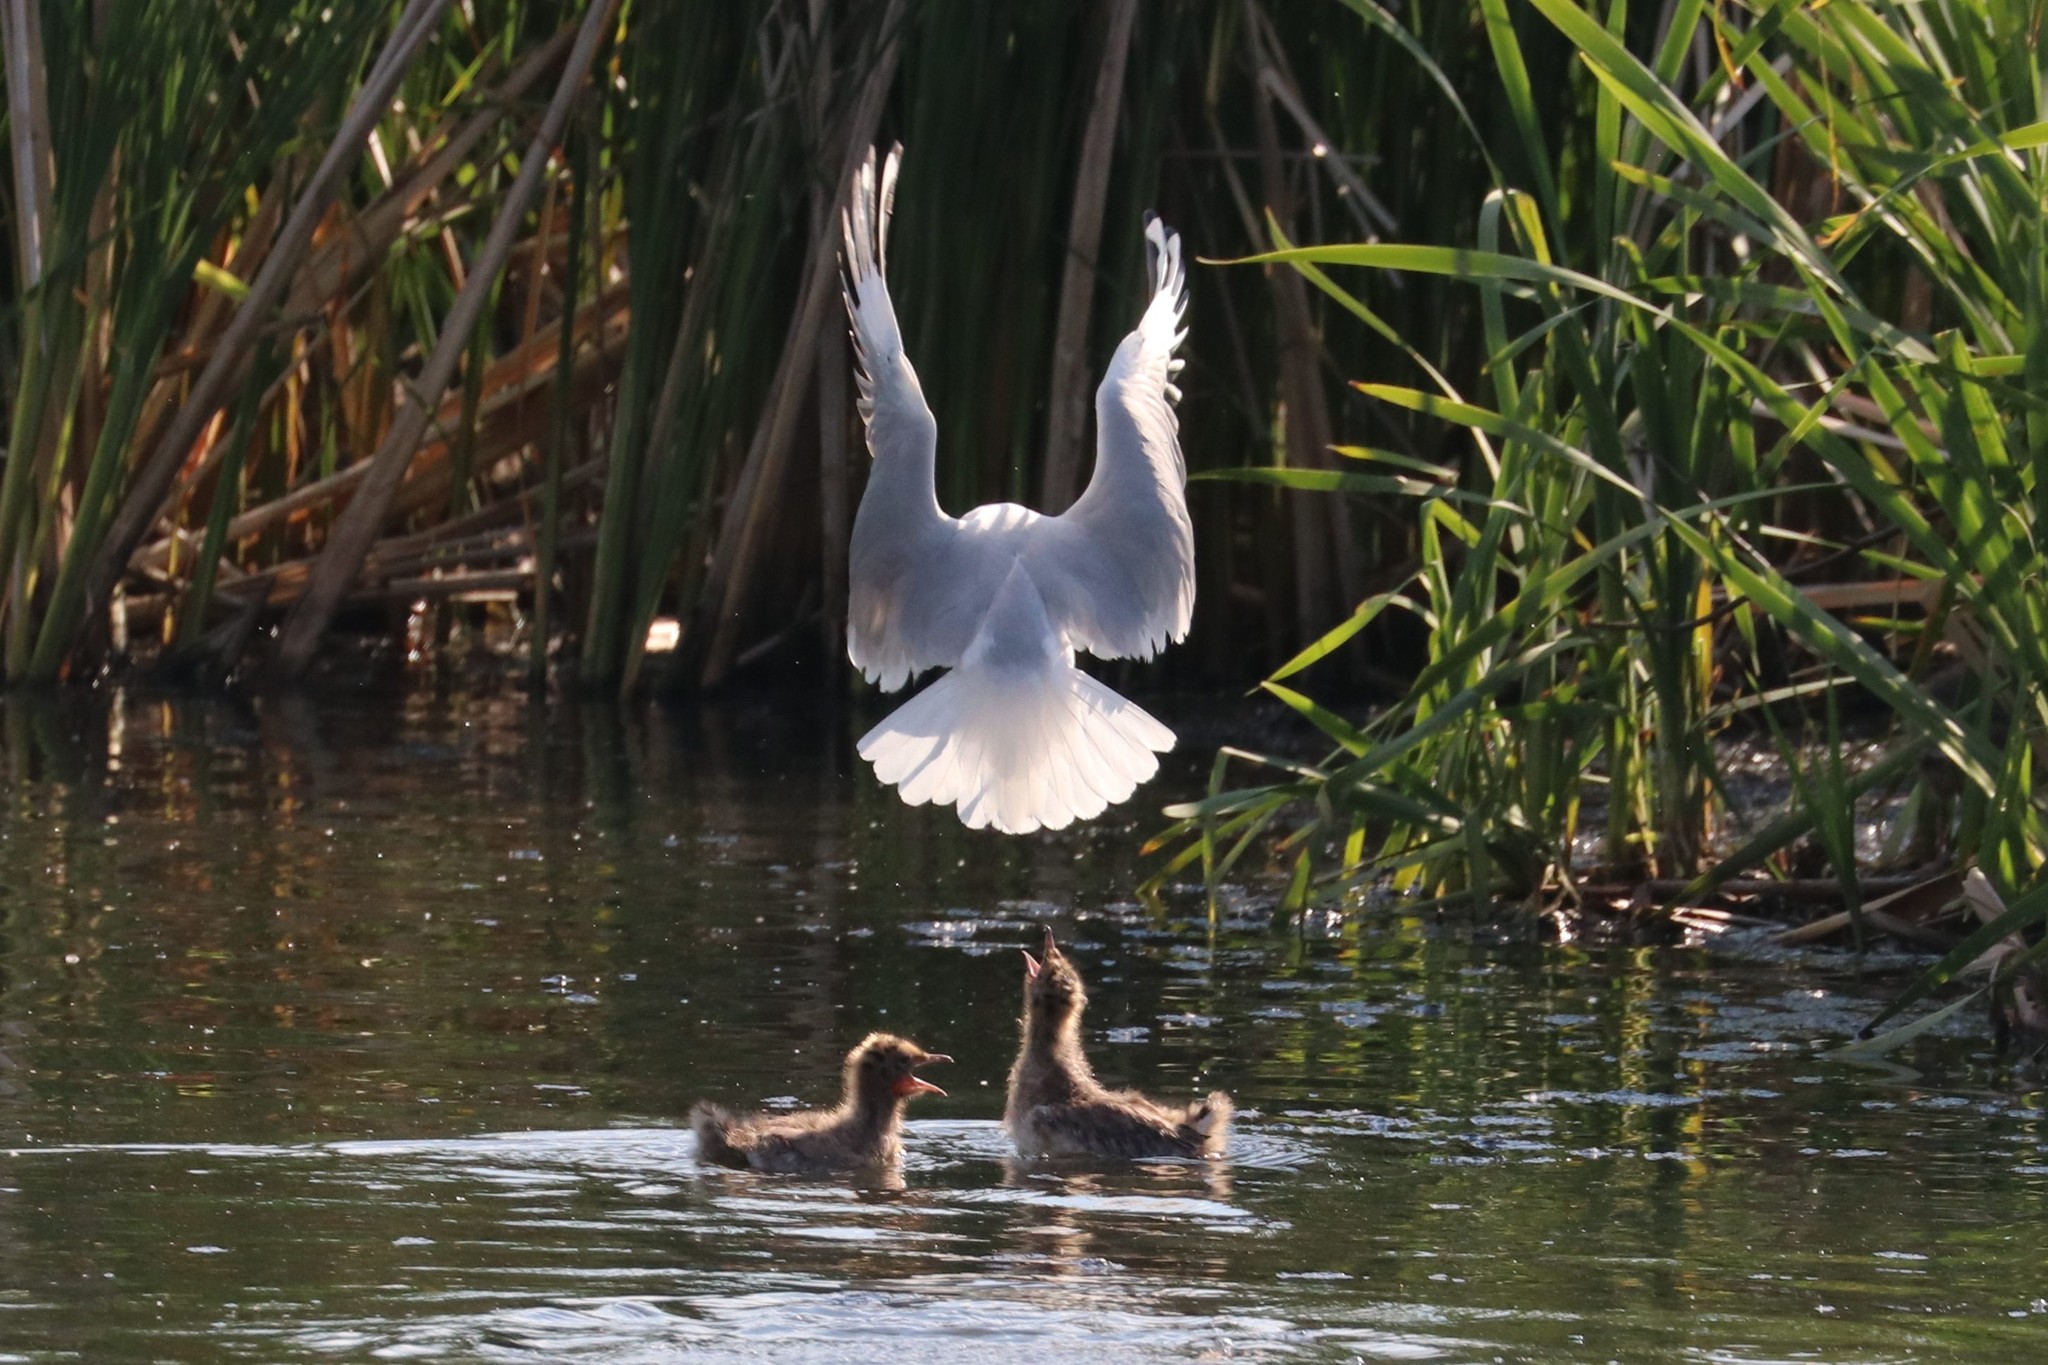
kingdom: Animalia
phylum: Chordata
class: Aves
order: Charadriiformes
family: Laridae
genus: Chroicocephalus
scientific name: Chroicocephalus ridibundus
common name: Black-headed gull
